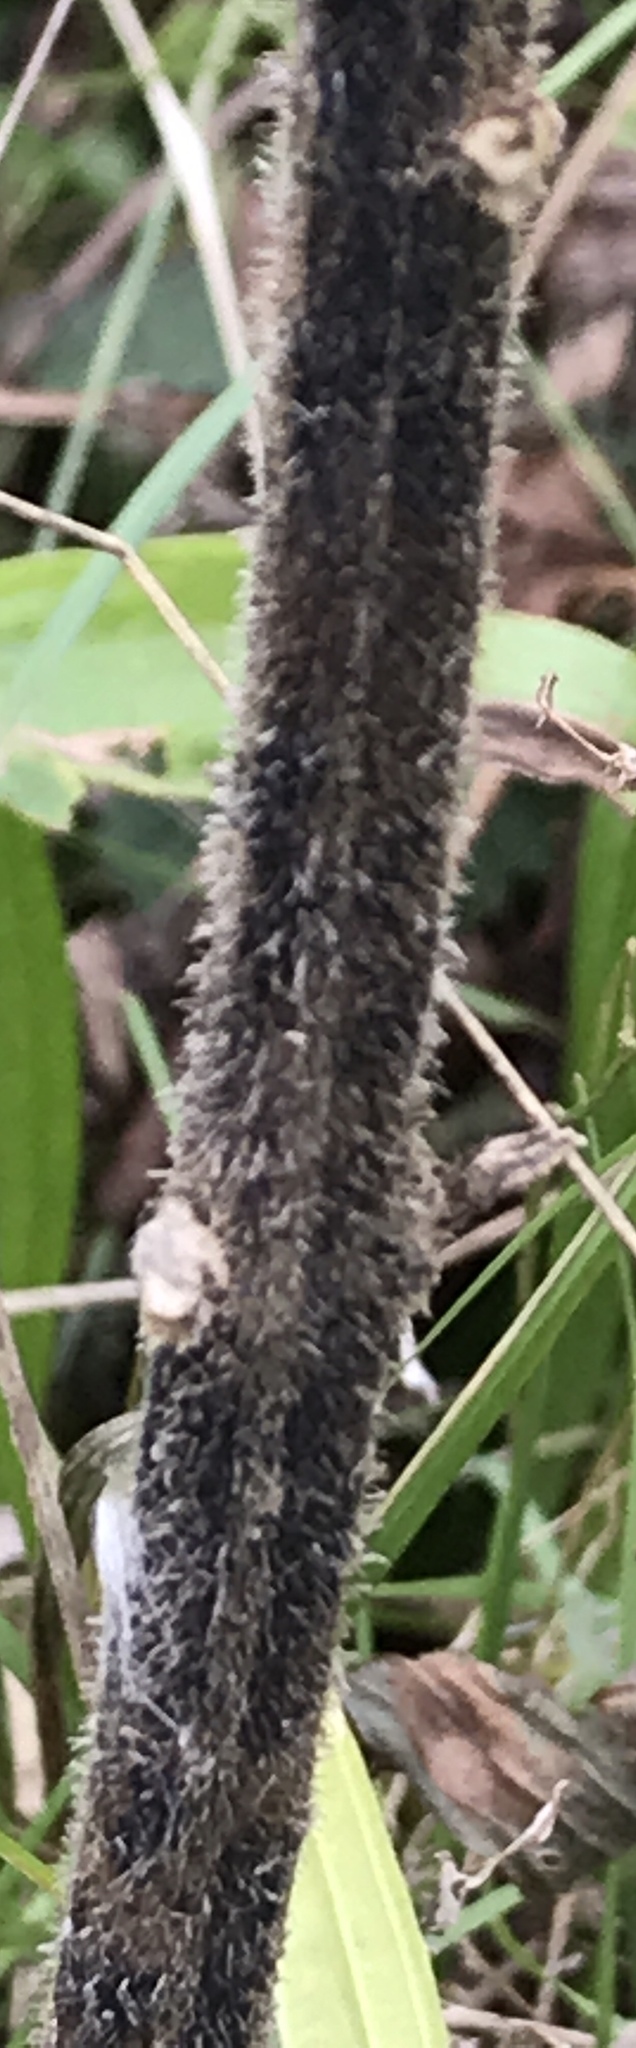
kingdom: Plantae
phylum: Tracheophyta
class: Magnoliopsida
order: Gentianales
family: Apocynaceae
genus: Asclepias
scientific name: Asclepias tuberosa
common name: Butterfly milkweed
